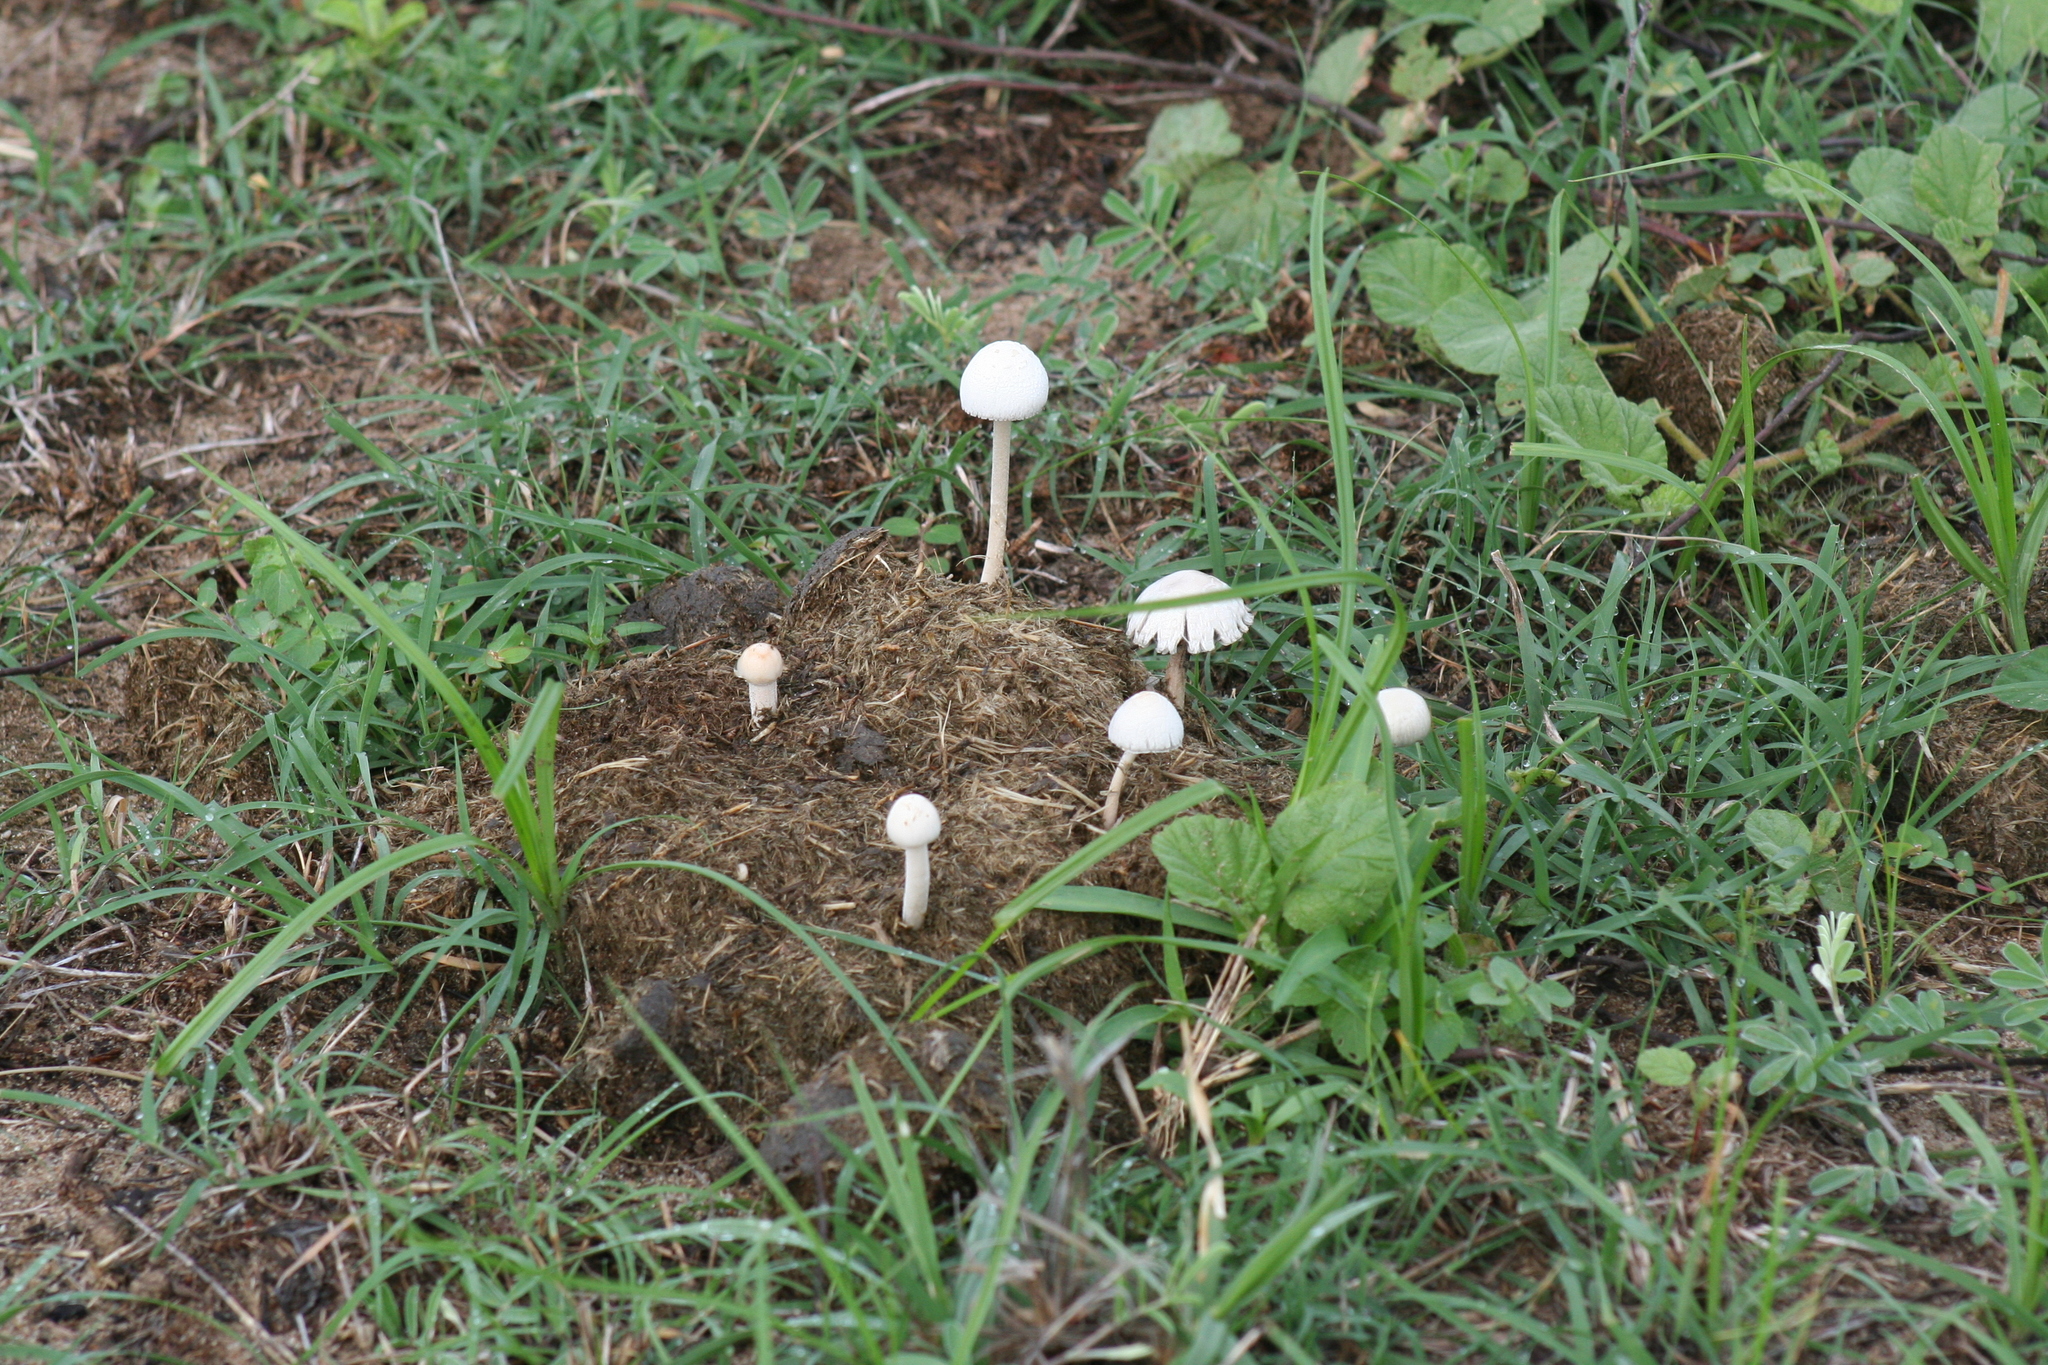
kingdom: Fungi
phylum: Basidiomycota
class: Agaricomycetes
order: Agaricales
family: Bolbitiaceae
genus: Panaeolus
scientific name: Panaeolus antillarum
